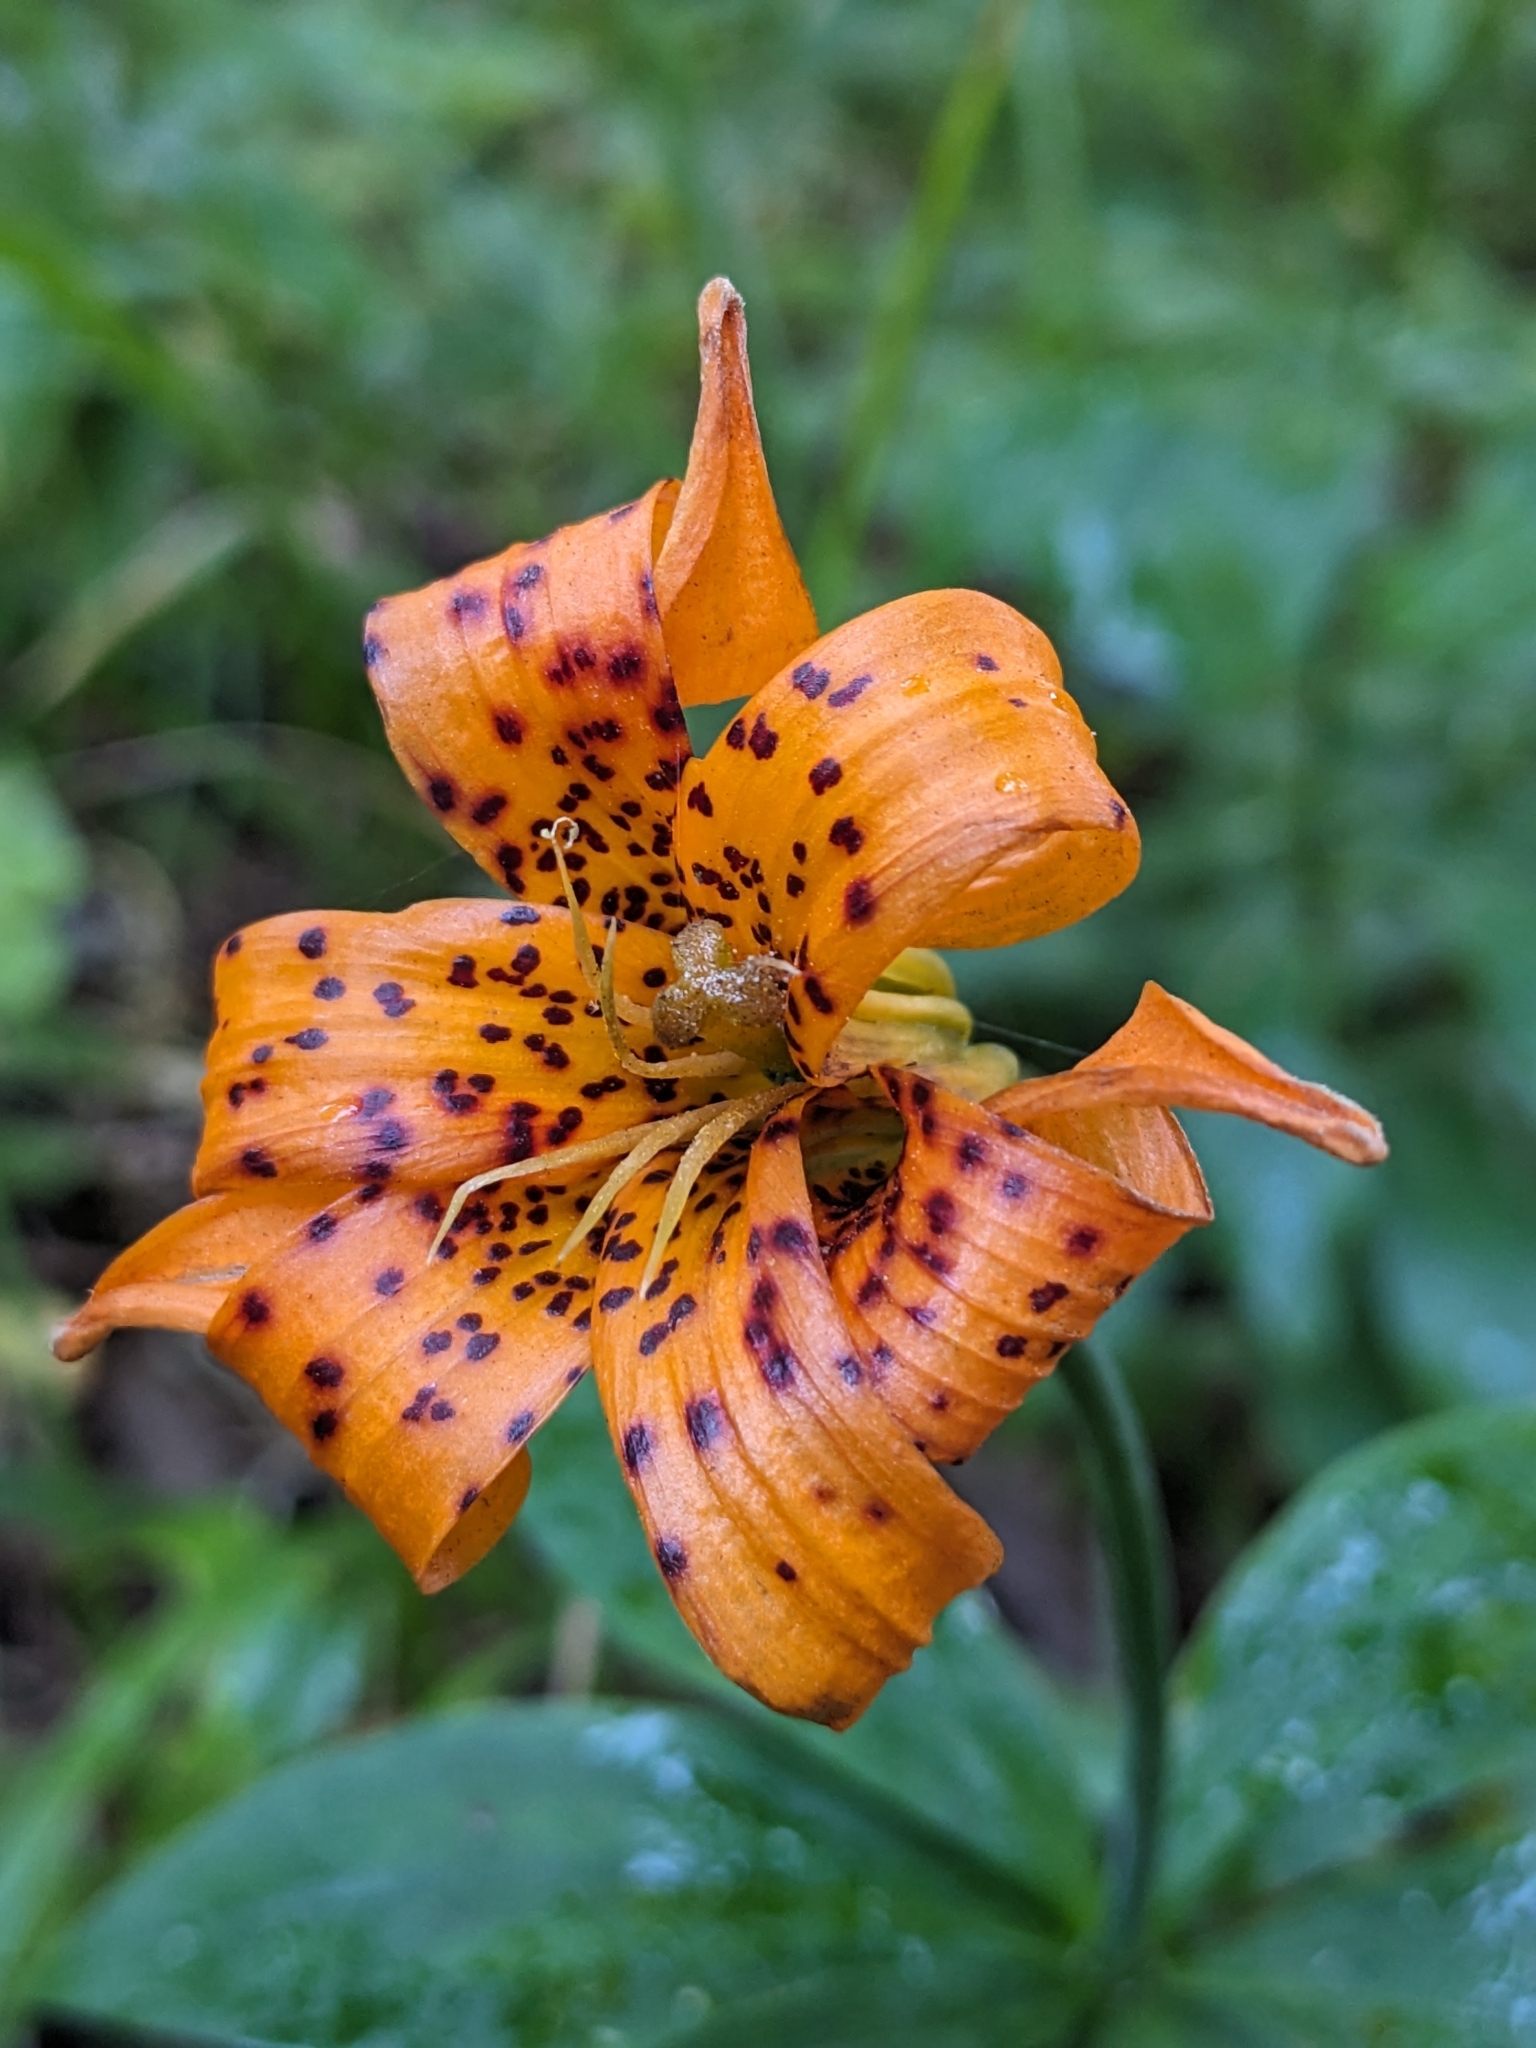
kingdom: Plantae
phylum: Tracheophyta
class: Liliopsida
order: Liliales
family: Liliaceae
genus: Lilium
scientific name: Lilium columbianum
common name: Columbia lily
